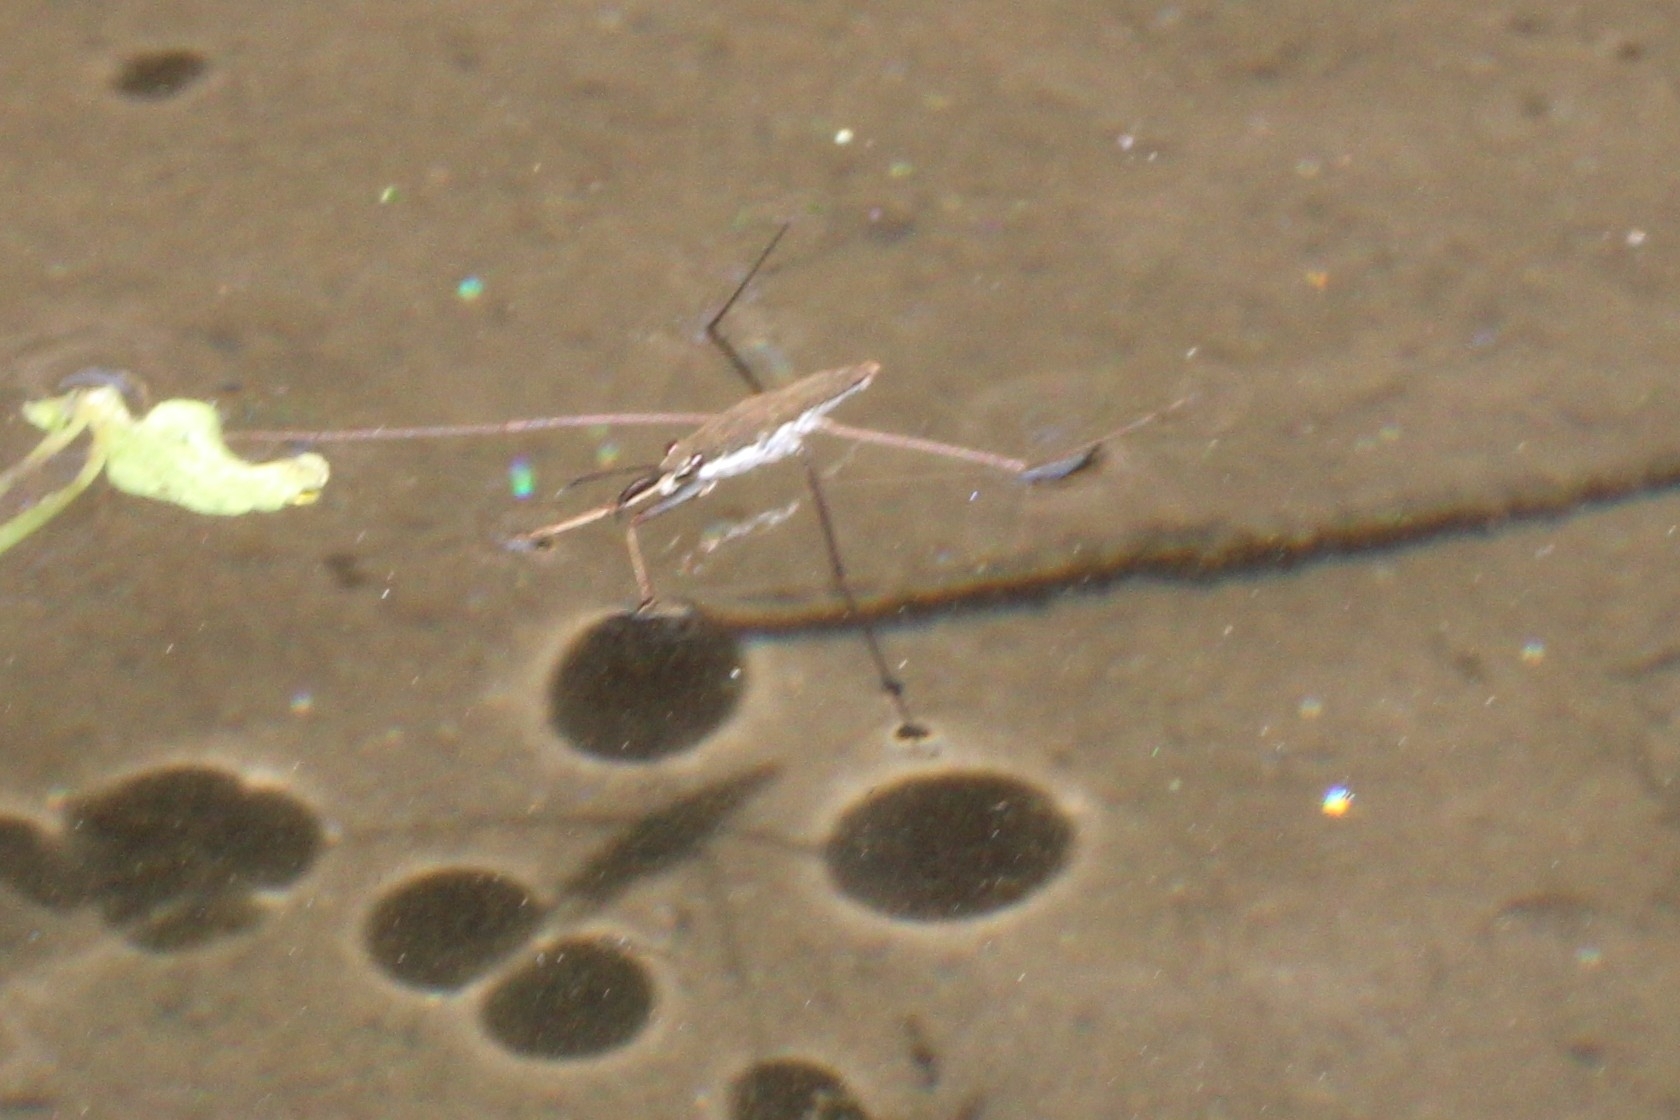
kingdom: Animalia
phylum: Arthropoda
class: Insecta
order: Hemiptera
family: Gerridae
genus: Aquarius
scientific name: Aquarius
